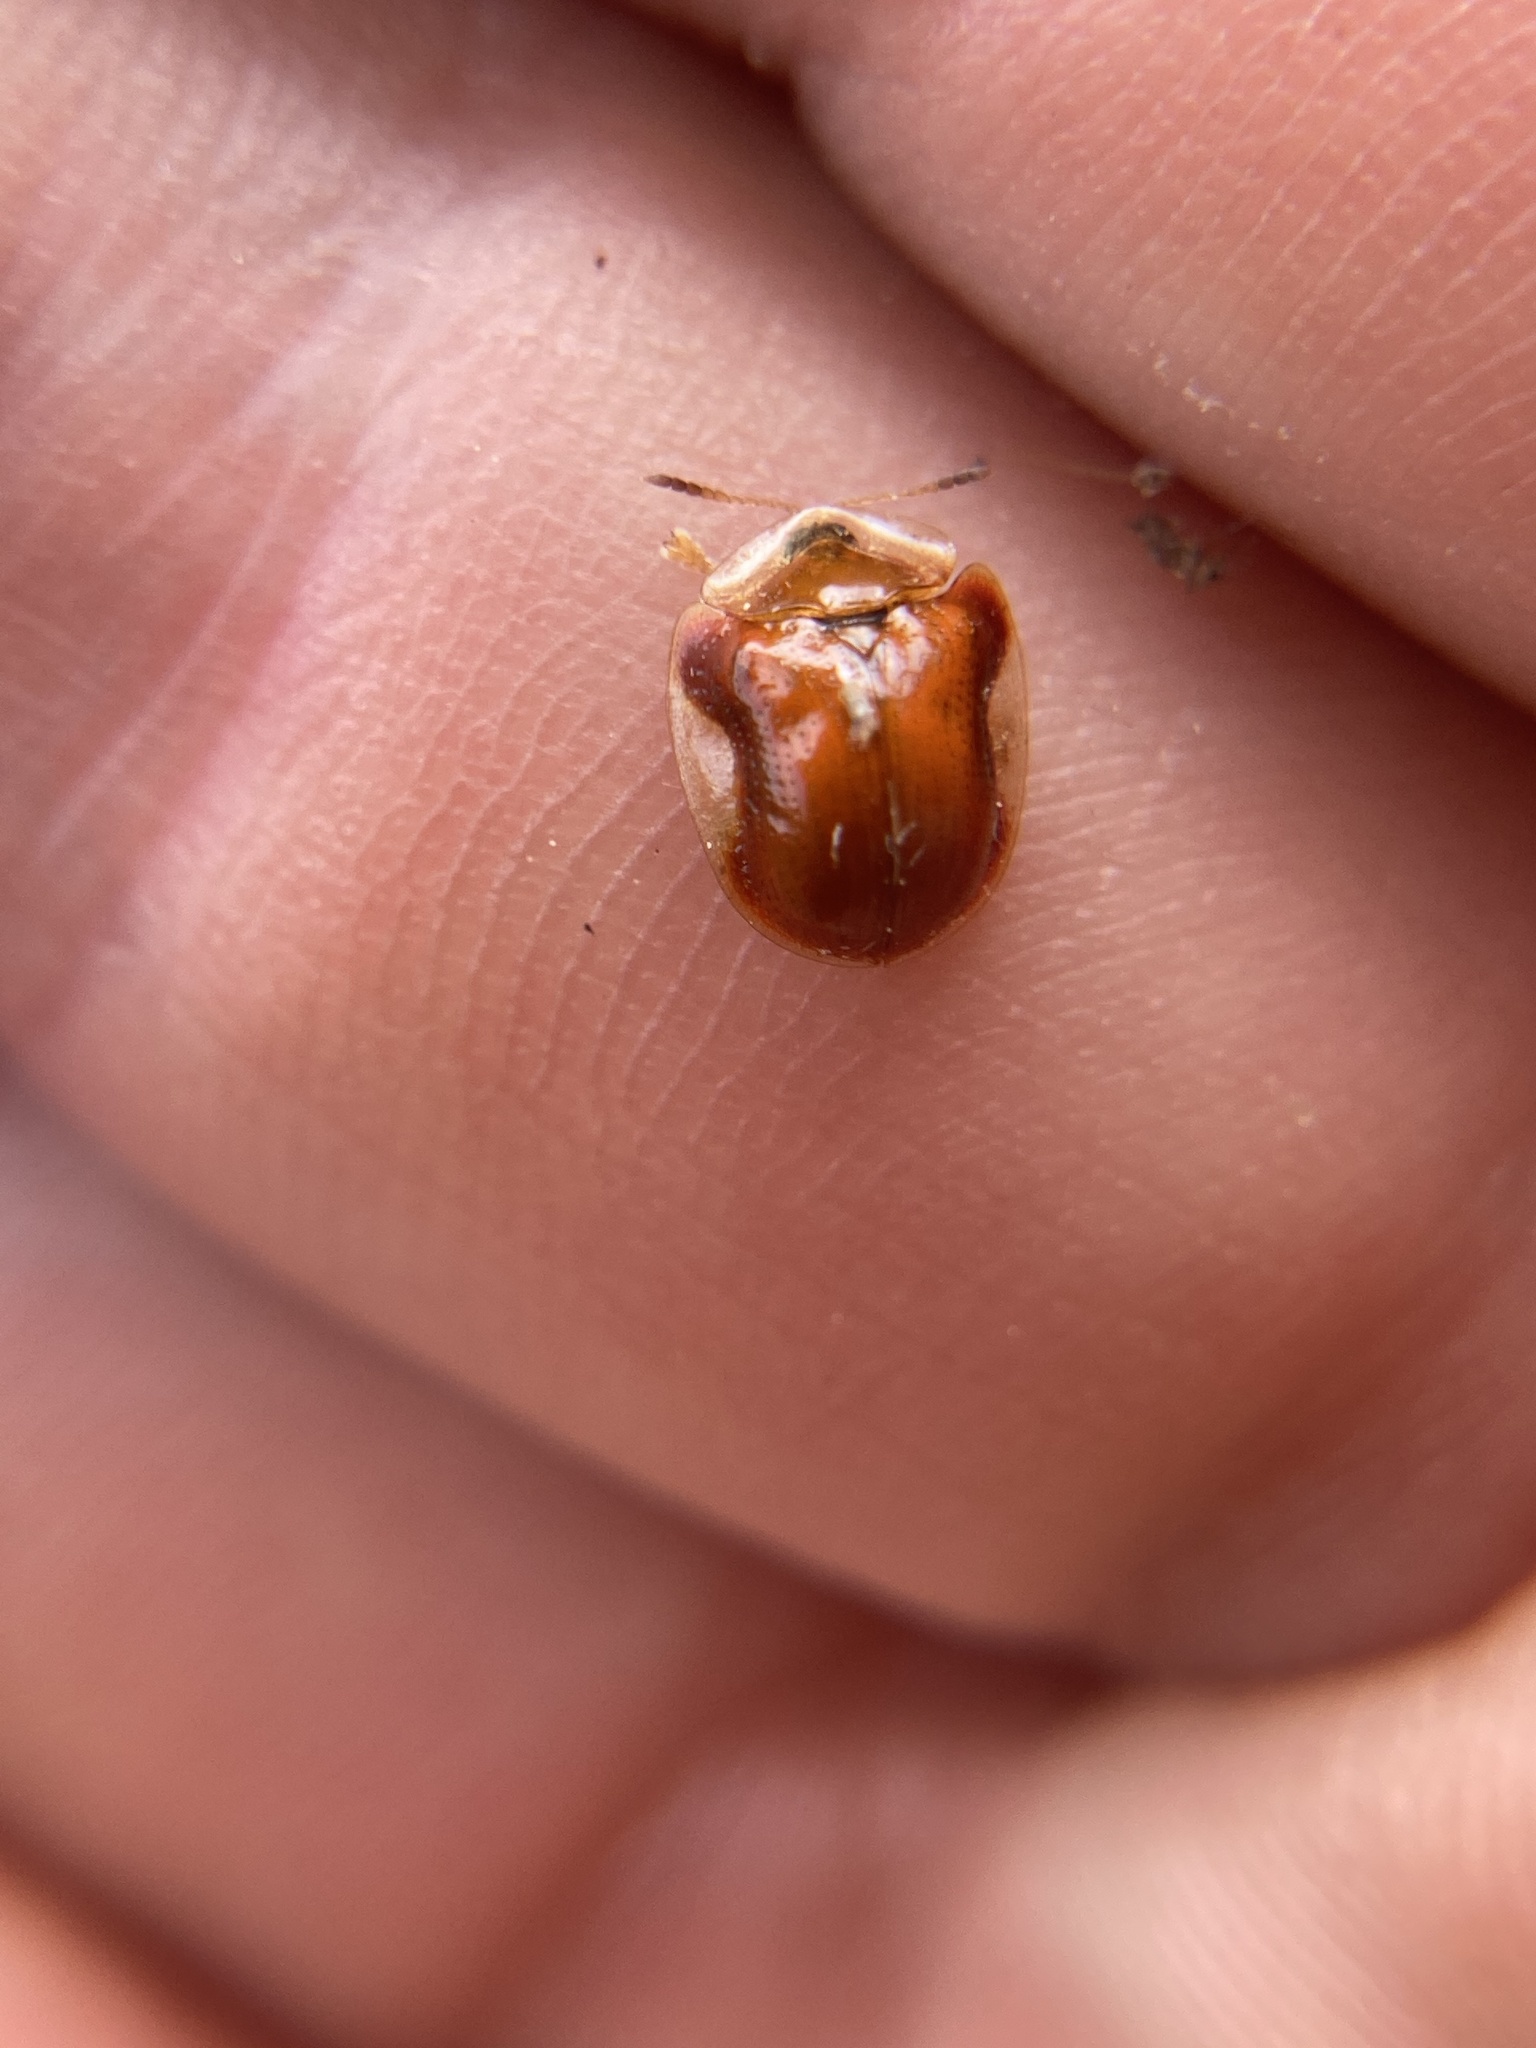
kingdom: Animalia
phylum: Arthropoda
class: Insecta
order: Coleoptera
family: Chrysomelidae
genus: Charidotella
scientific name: Charidotella purpurata
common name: Small orange tortoise beetle
